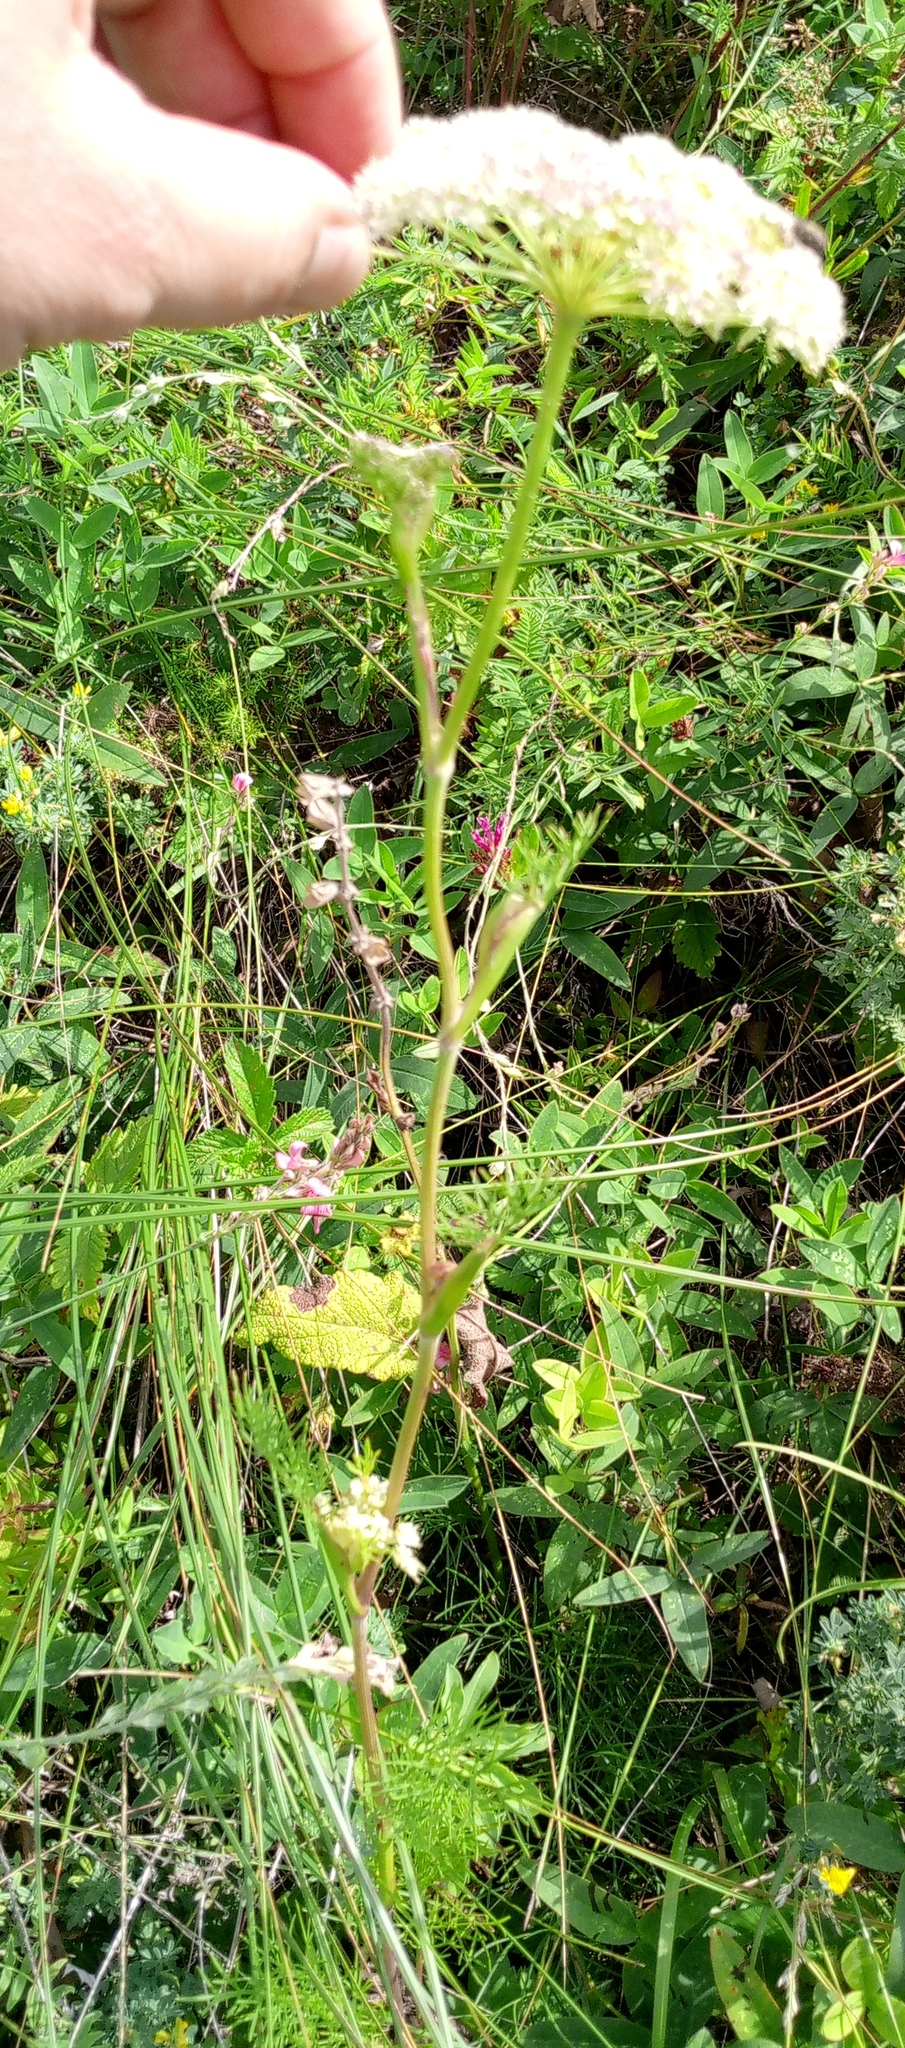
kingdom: Plantae
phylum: Tracheophyta
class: Magnoliopsida
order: Apiales
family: Apiaceae
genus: Seseli
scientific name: Seseli annuum
